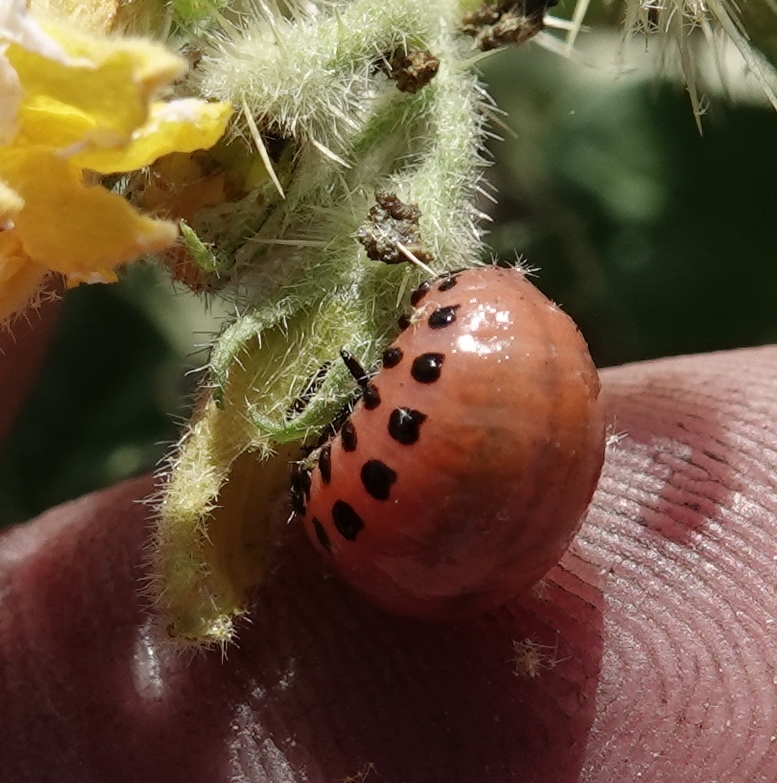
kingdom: Animalia
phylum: Arthropoda
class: Insecta
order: Coleoptera
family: Chrysomelidae
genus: Leptinotarsa
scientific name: Leptinotarsa decemlineata
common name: Colorado potato beetle
